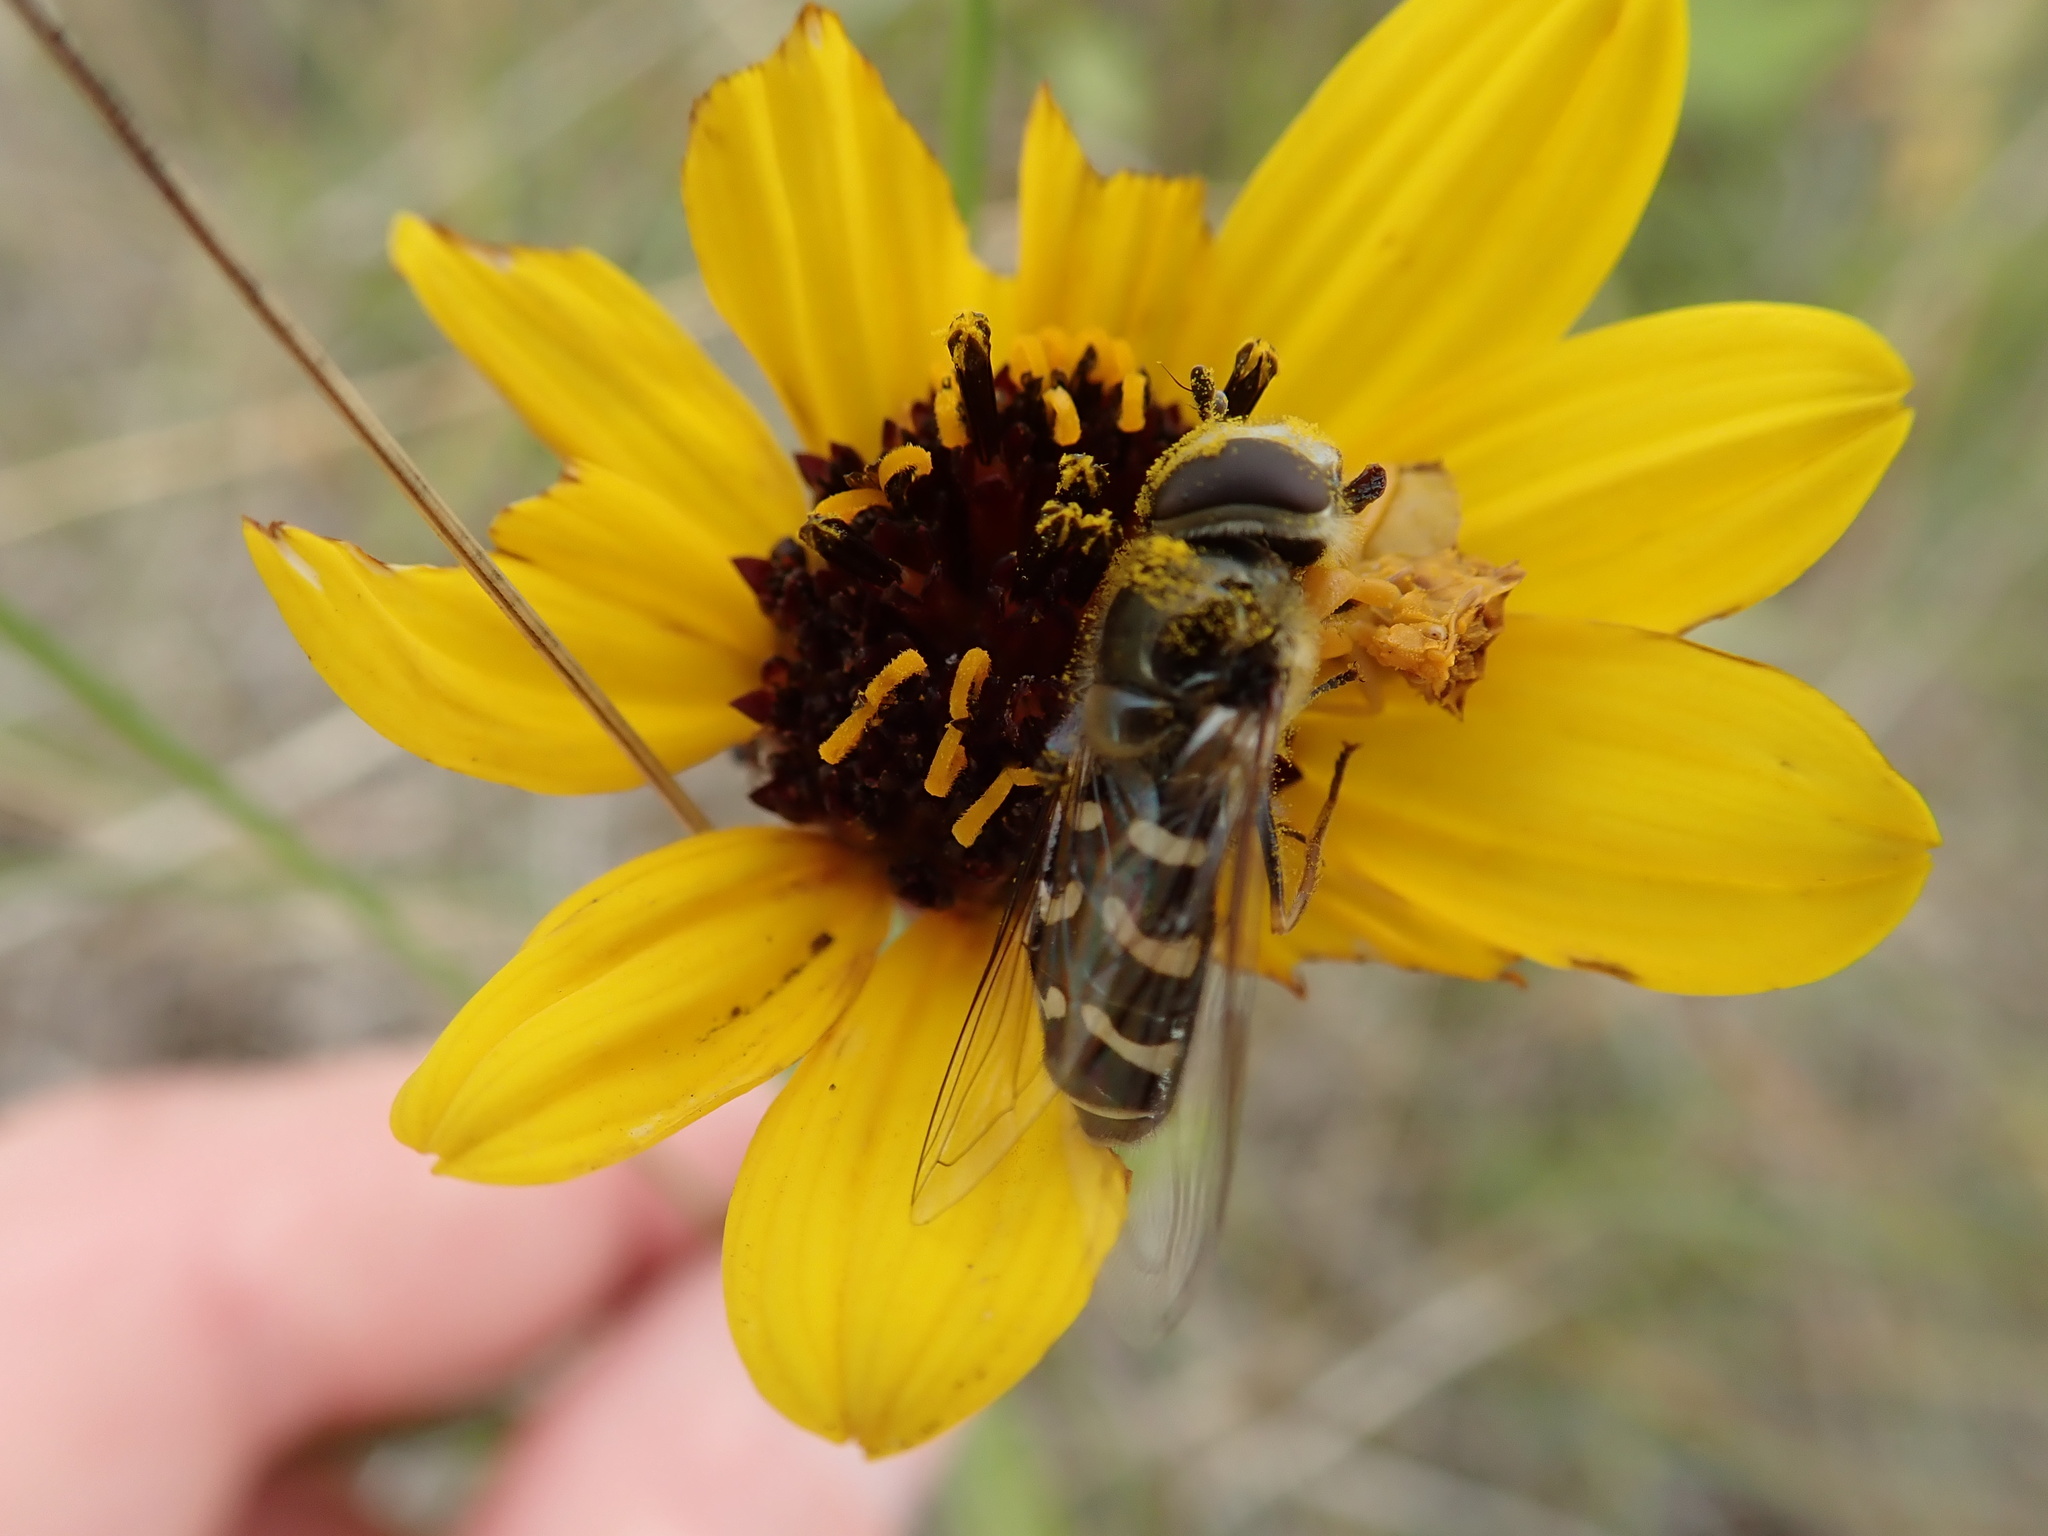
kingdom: Animalia
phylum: Arthropoda
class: Insecta
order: Hemiptera
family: Reduviidae
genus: Phymata
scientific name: Phymata americana
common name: Jagged ambush bug
